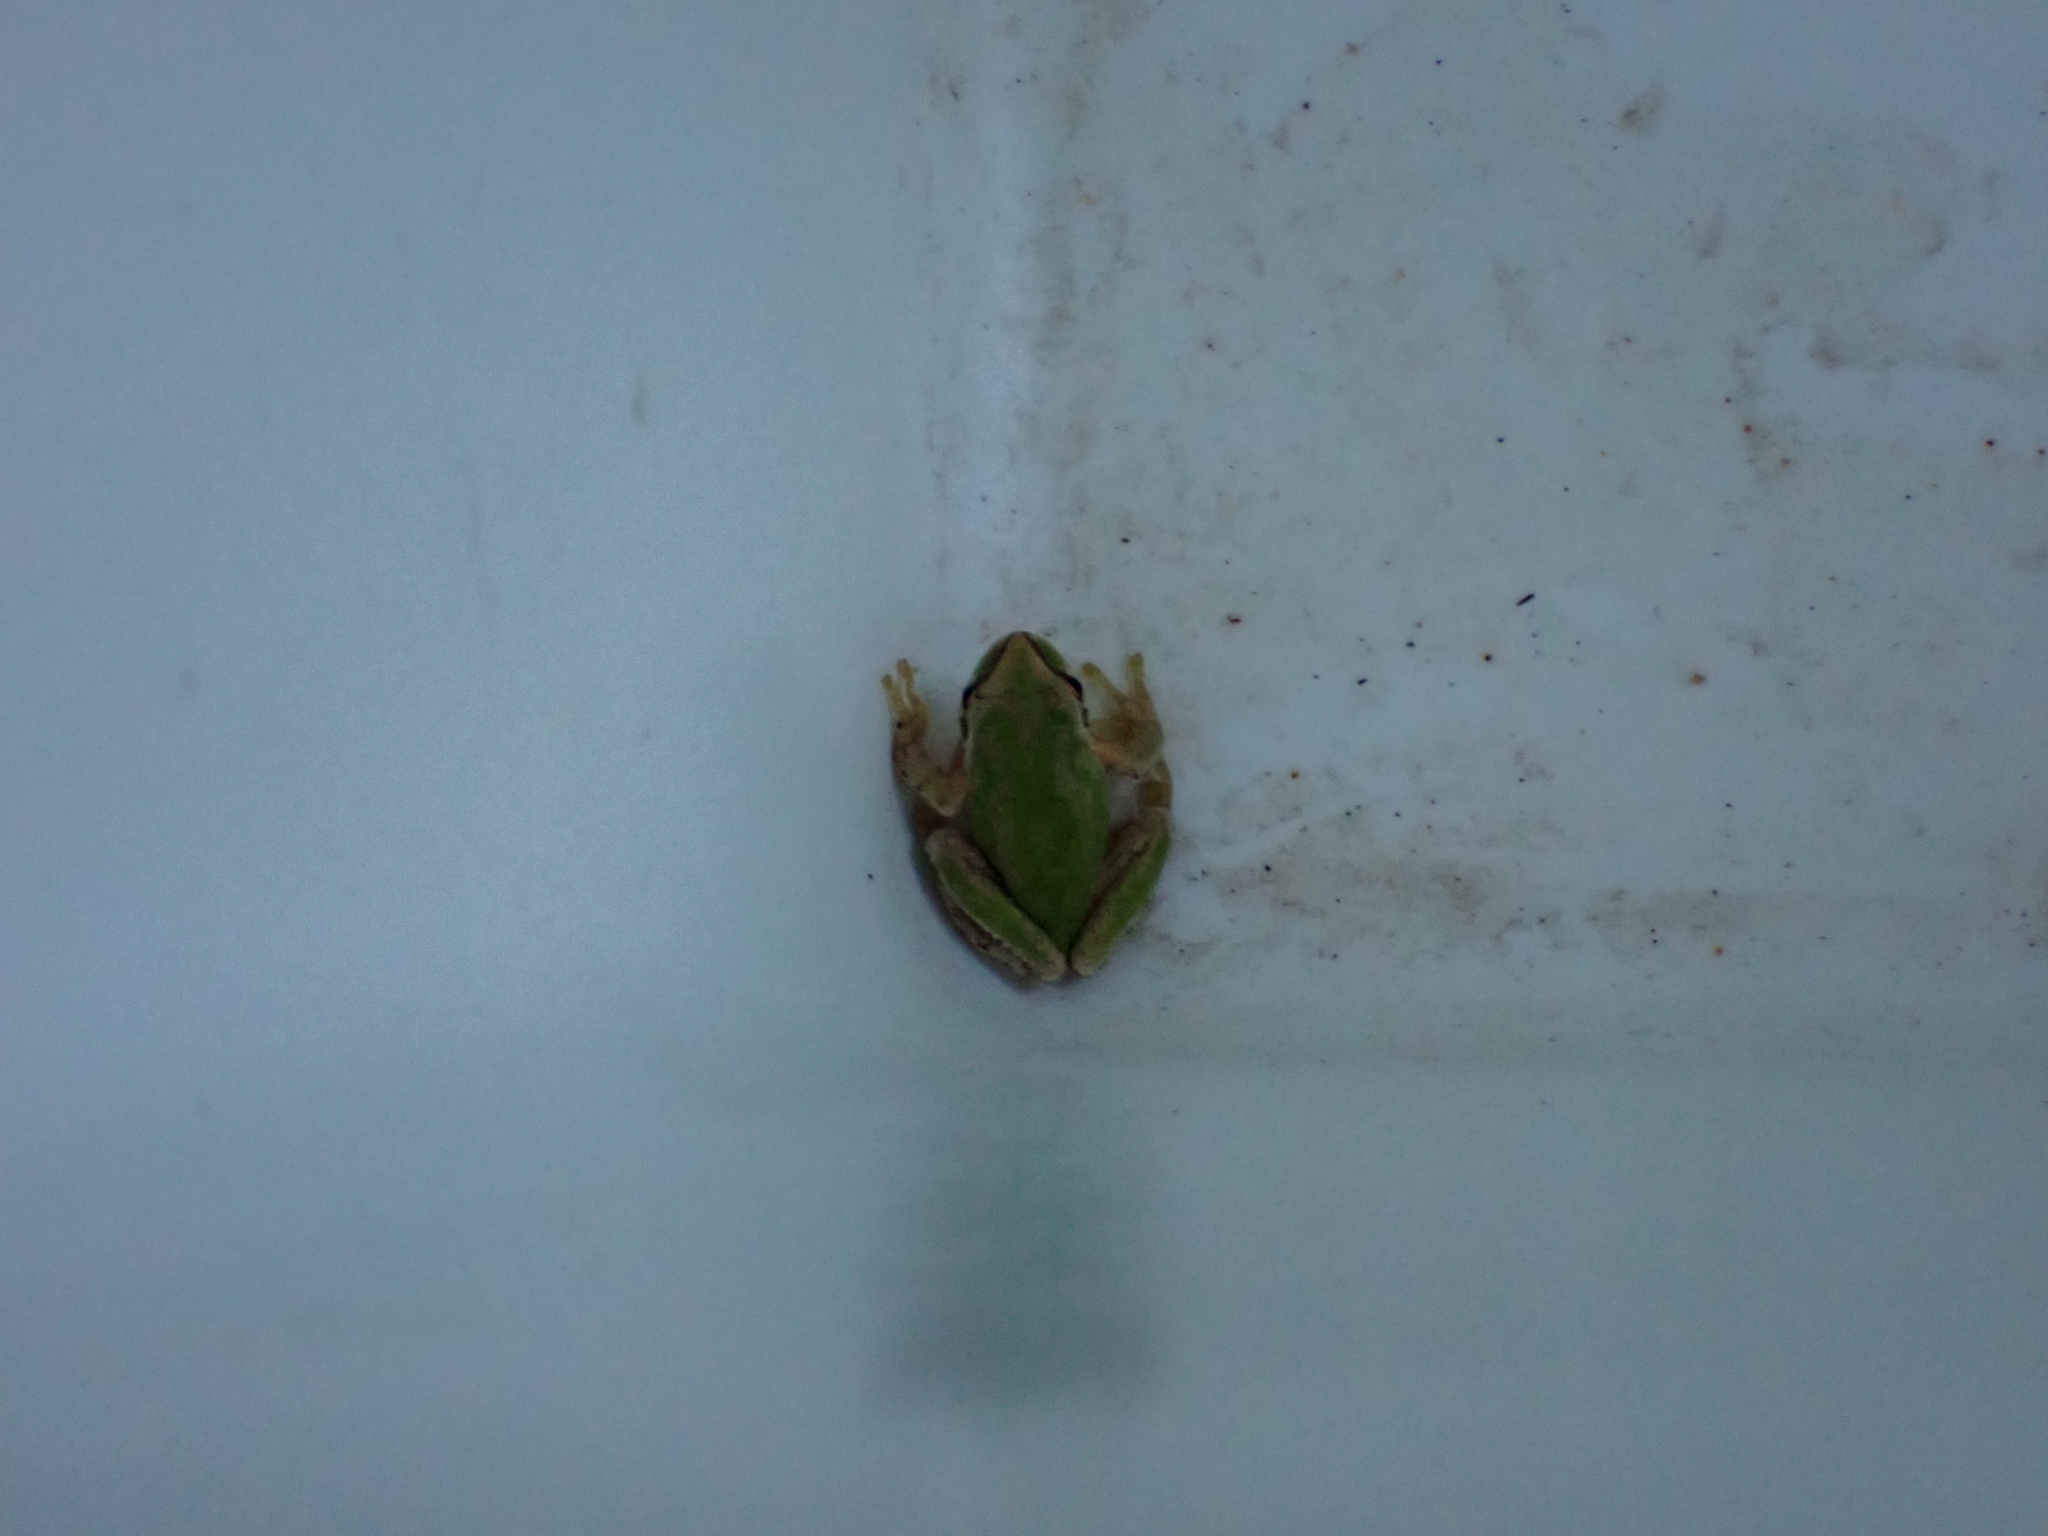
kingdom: Animalia
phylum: Chordata
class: Amphibia
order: Anura
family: Hylidae
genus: Pseudacris
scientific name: Pseudacris regilla
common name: Pacific chorus frog
